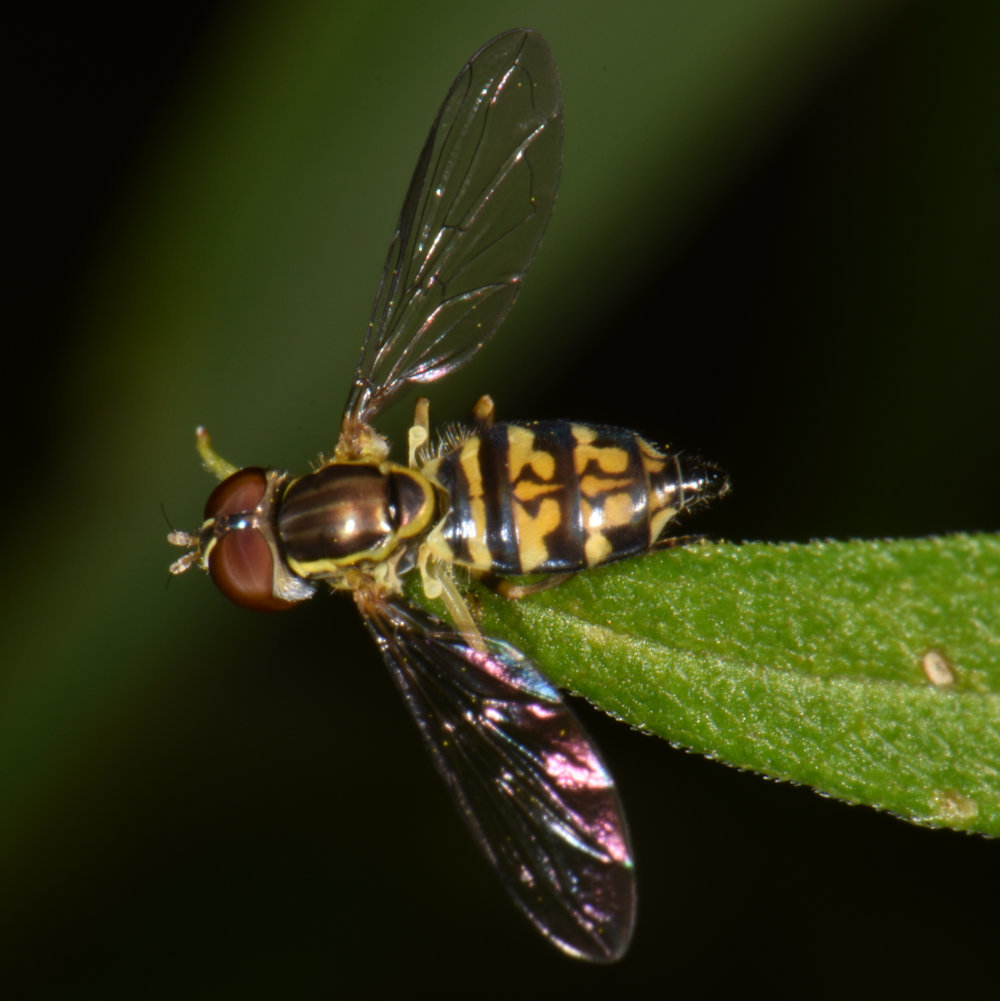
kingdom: Animalia
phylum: Arthropoda
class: Insecta
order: Diptera
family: Syrphidae
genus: Toxomerus
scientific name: Toxomerus geminatus
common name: Eastern calligrapher
